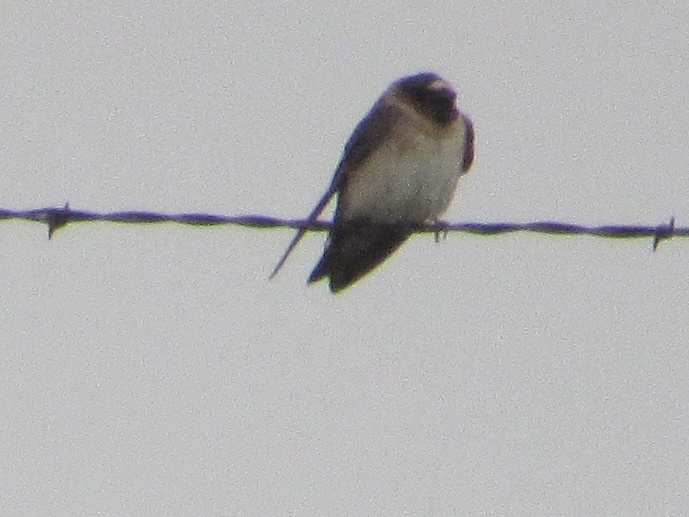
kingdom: Animalia
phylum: Chordata
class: Aves
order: Passeriformes
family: Hirundinidae
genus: Petrochelidon
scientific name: Petrochelidon pyrrhonota
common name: American cliff swallow
